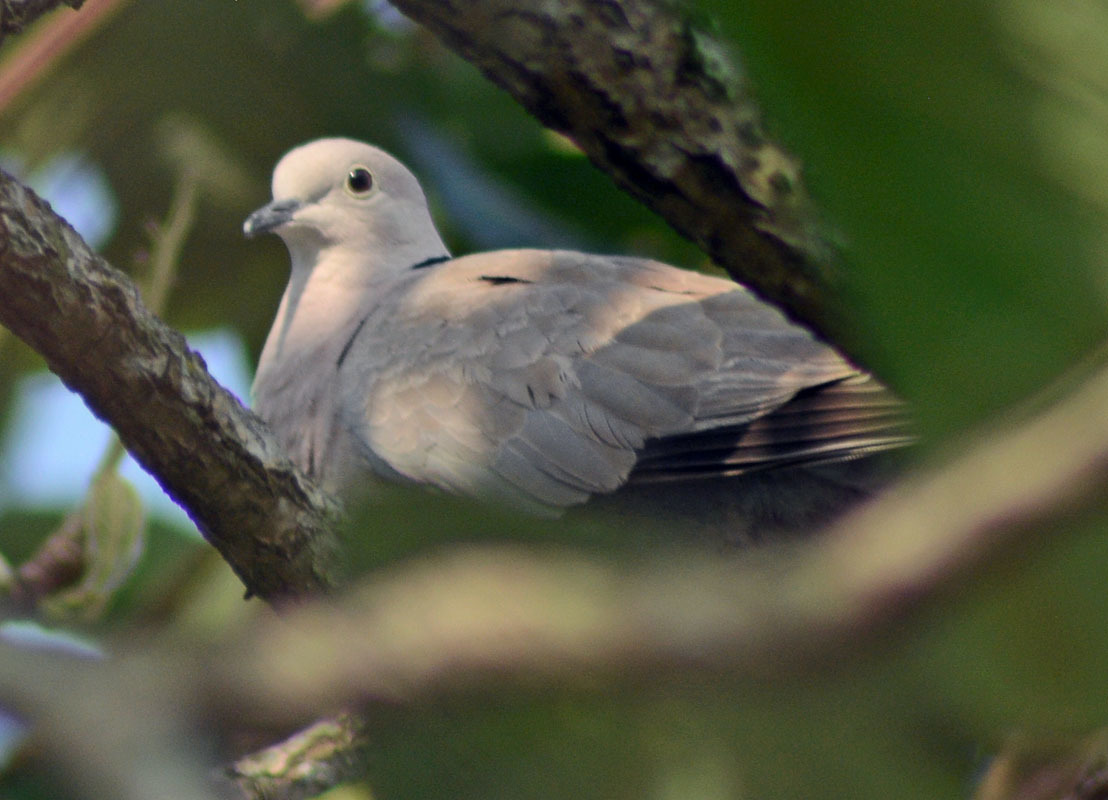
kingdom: Animalia
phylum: Chordata
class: Aves
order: Columbiformes
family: Columbidae
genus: Streptopelia
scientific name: Streptopelia decaocto
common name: Eurasian collared dove
